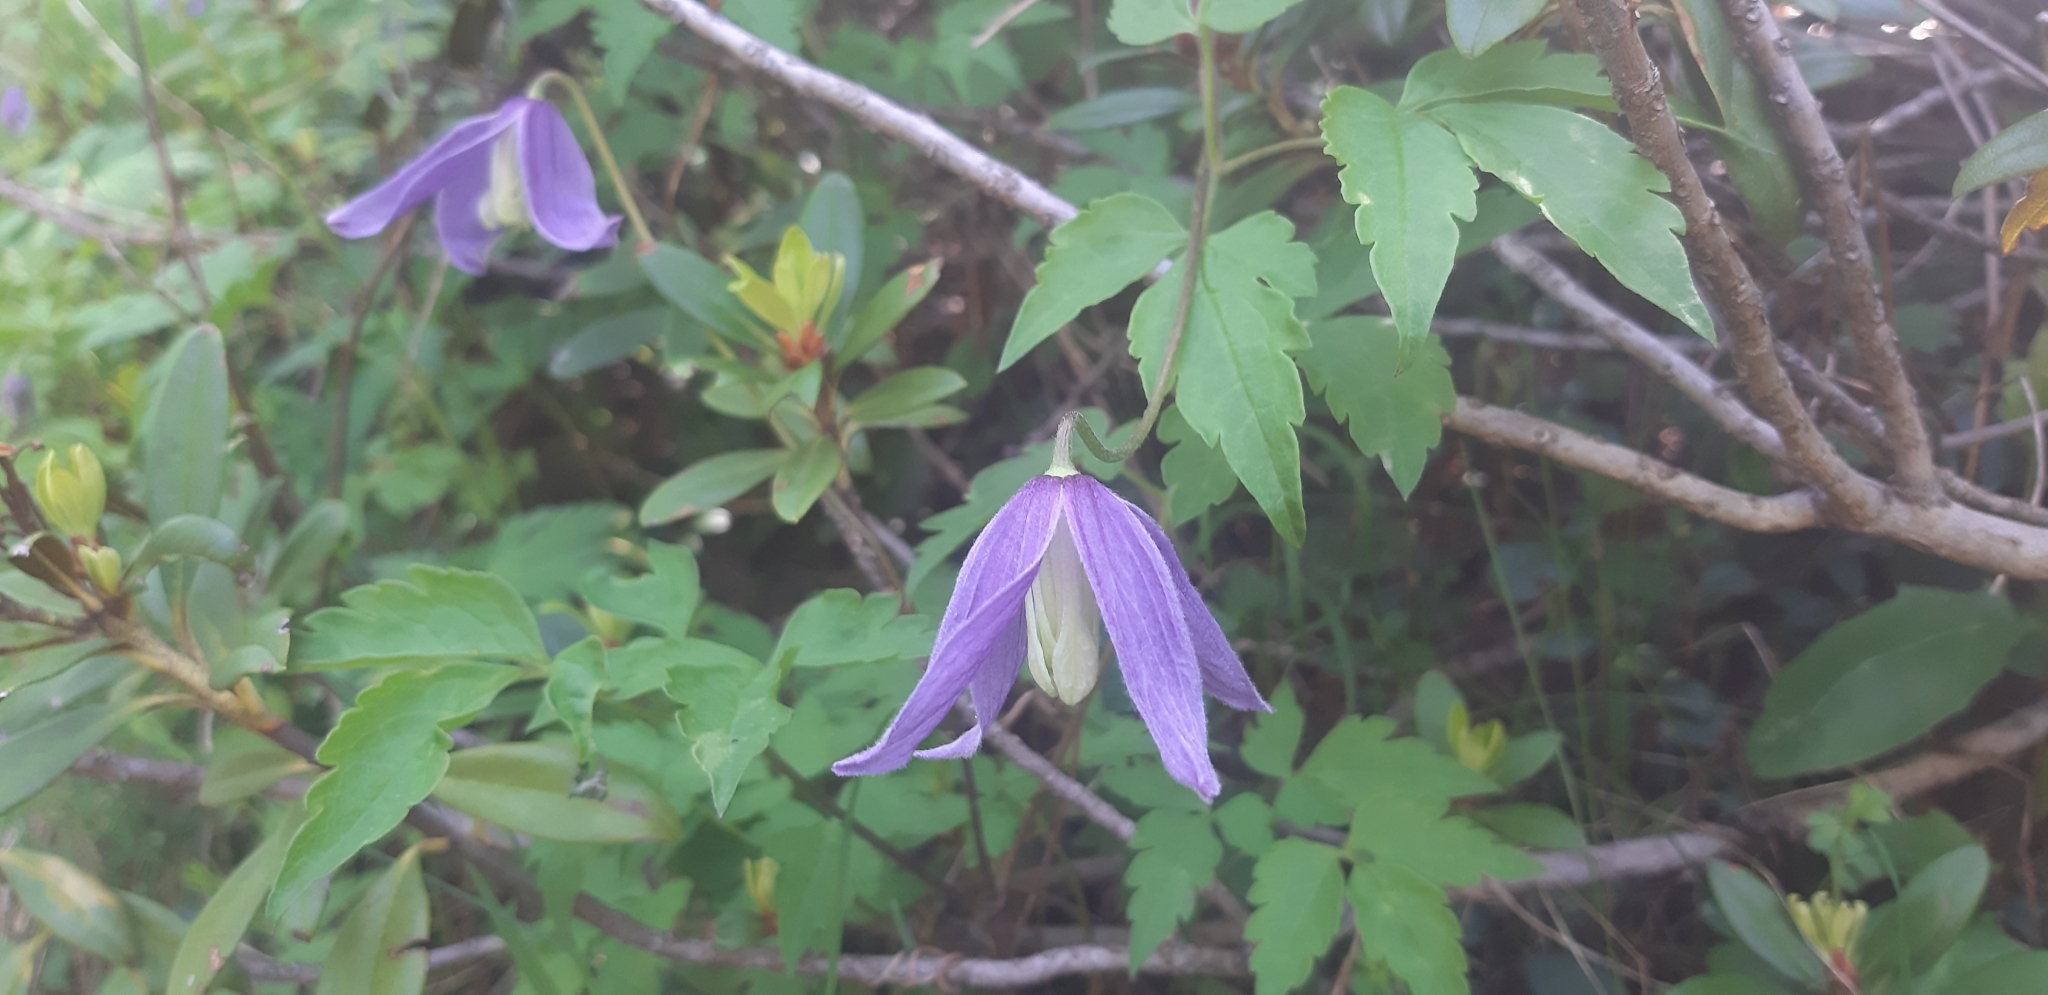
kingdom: Plantae
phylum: Tracheophyta
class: Magnoliopsida
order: Ranunculales
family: Ranunculaceae
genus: Clematis
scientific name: Clematis alpina
